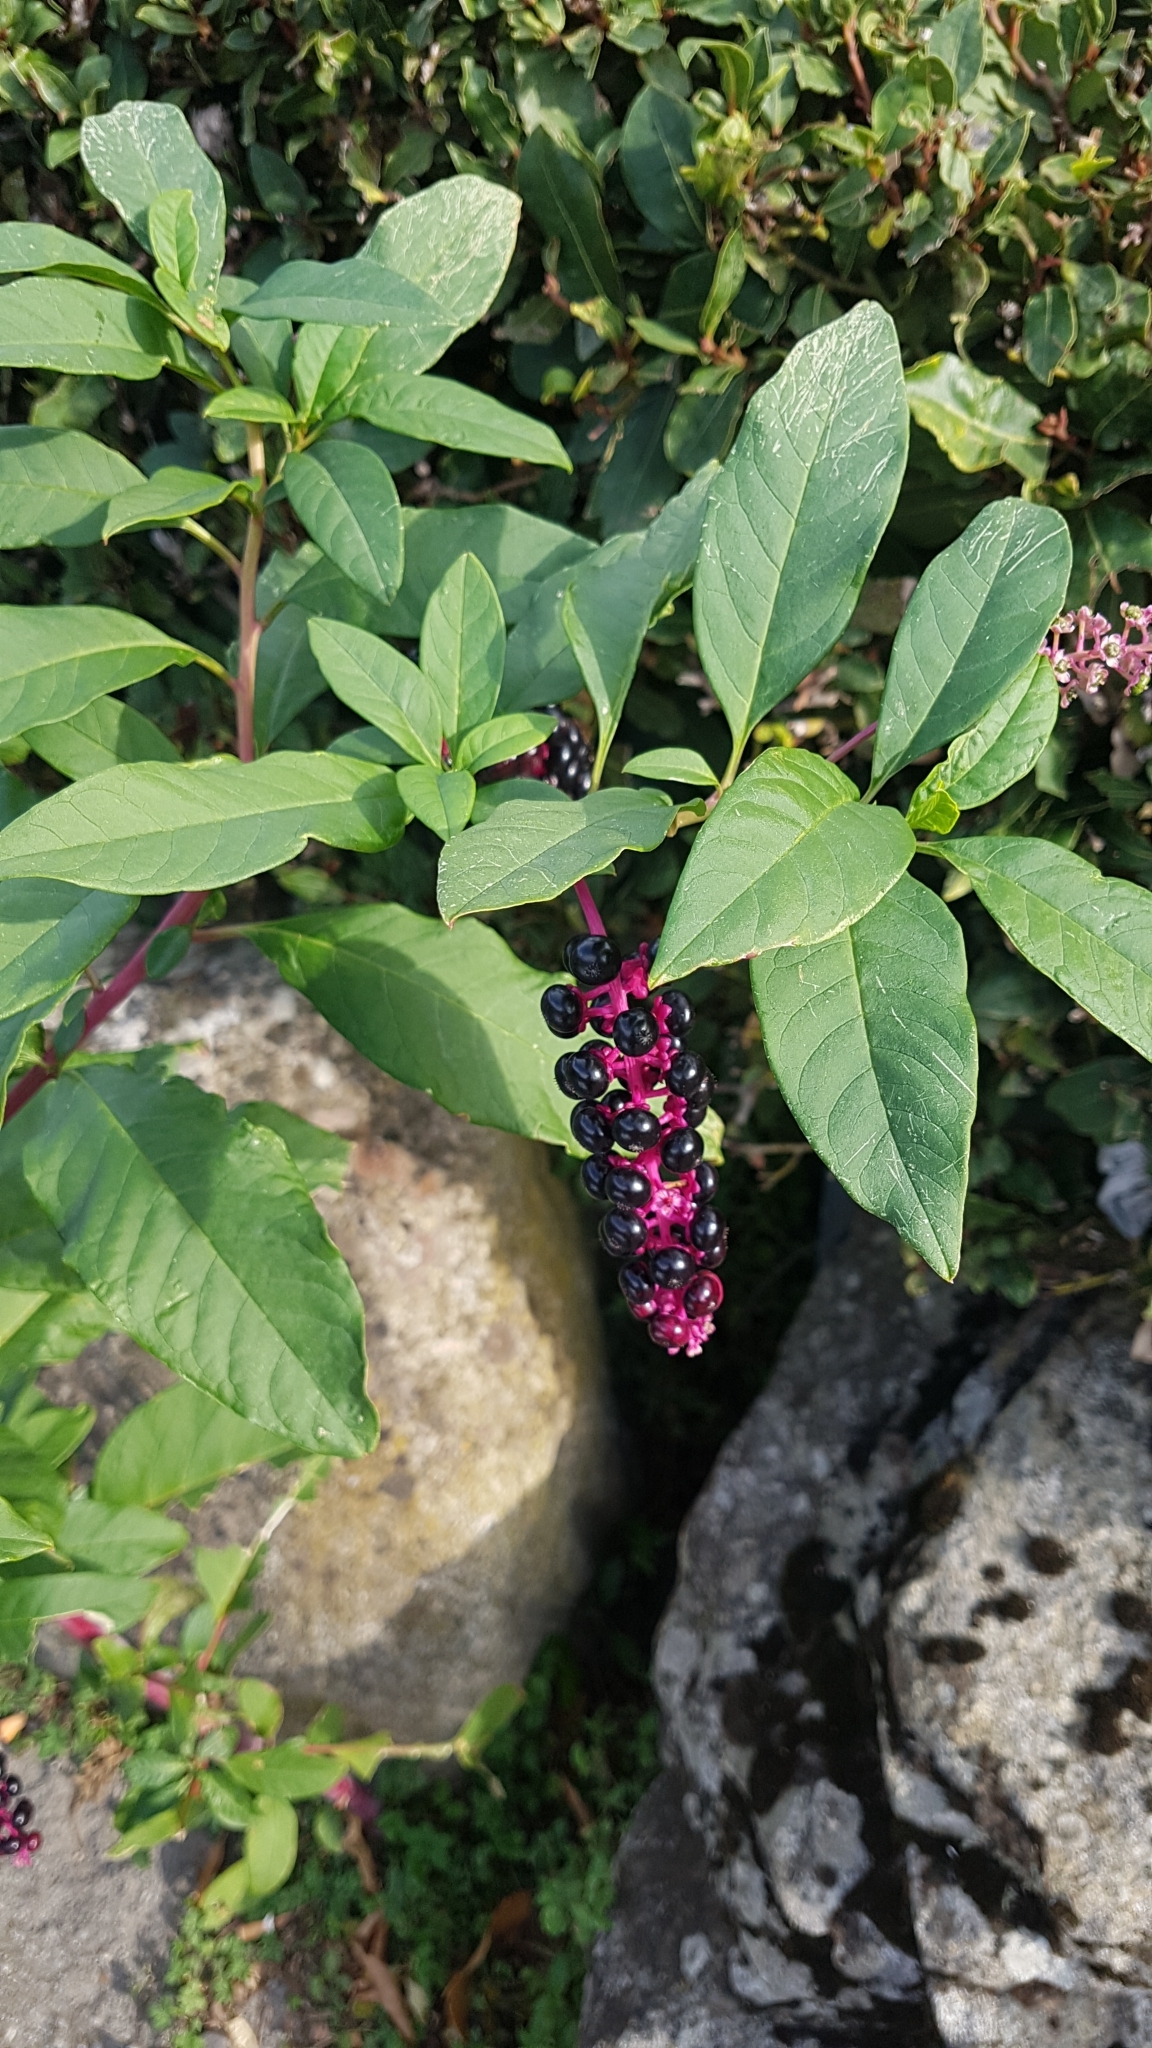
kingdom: Plantae
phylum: Tracheophyta
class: Magnoliopsida
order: Caryophyllales
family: Phytolaccaceae
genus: Phytolacca
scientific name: Phytolacca americana
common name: American pokeweed
